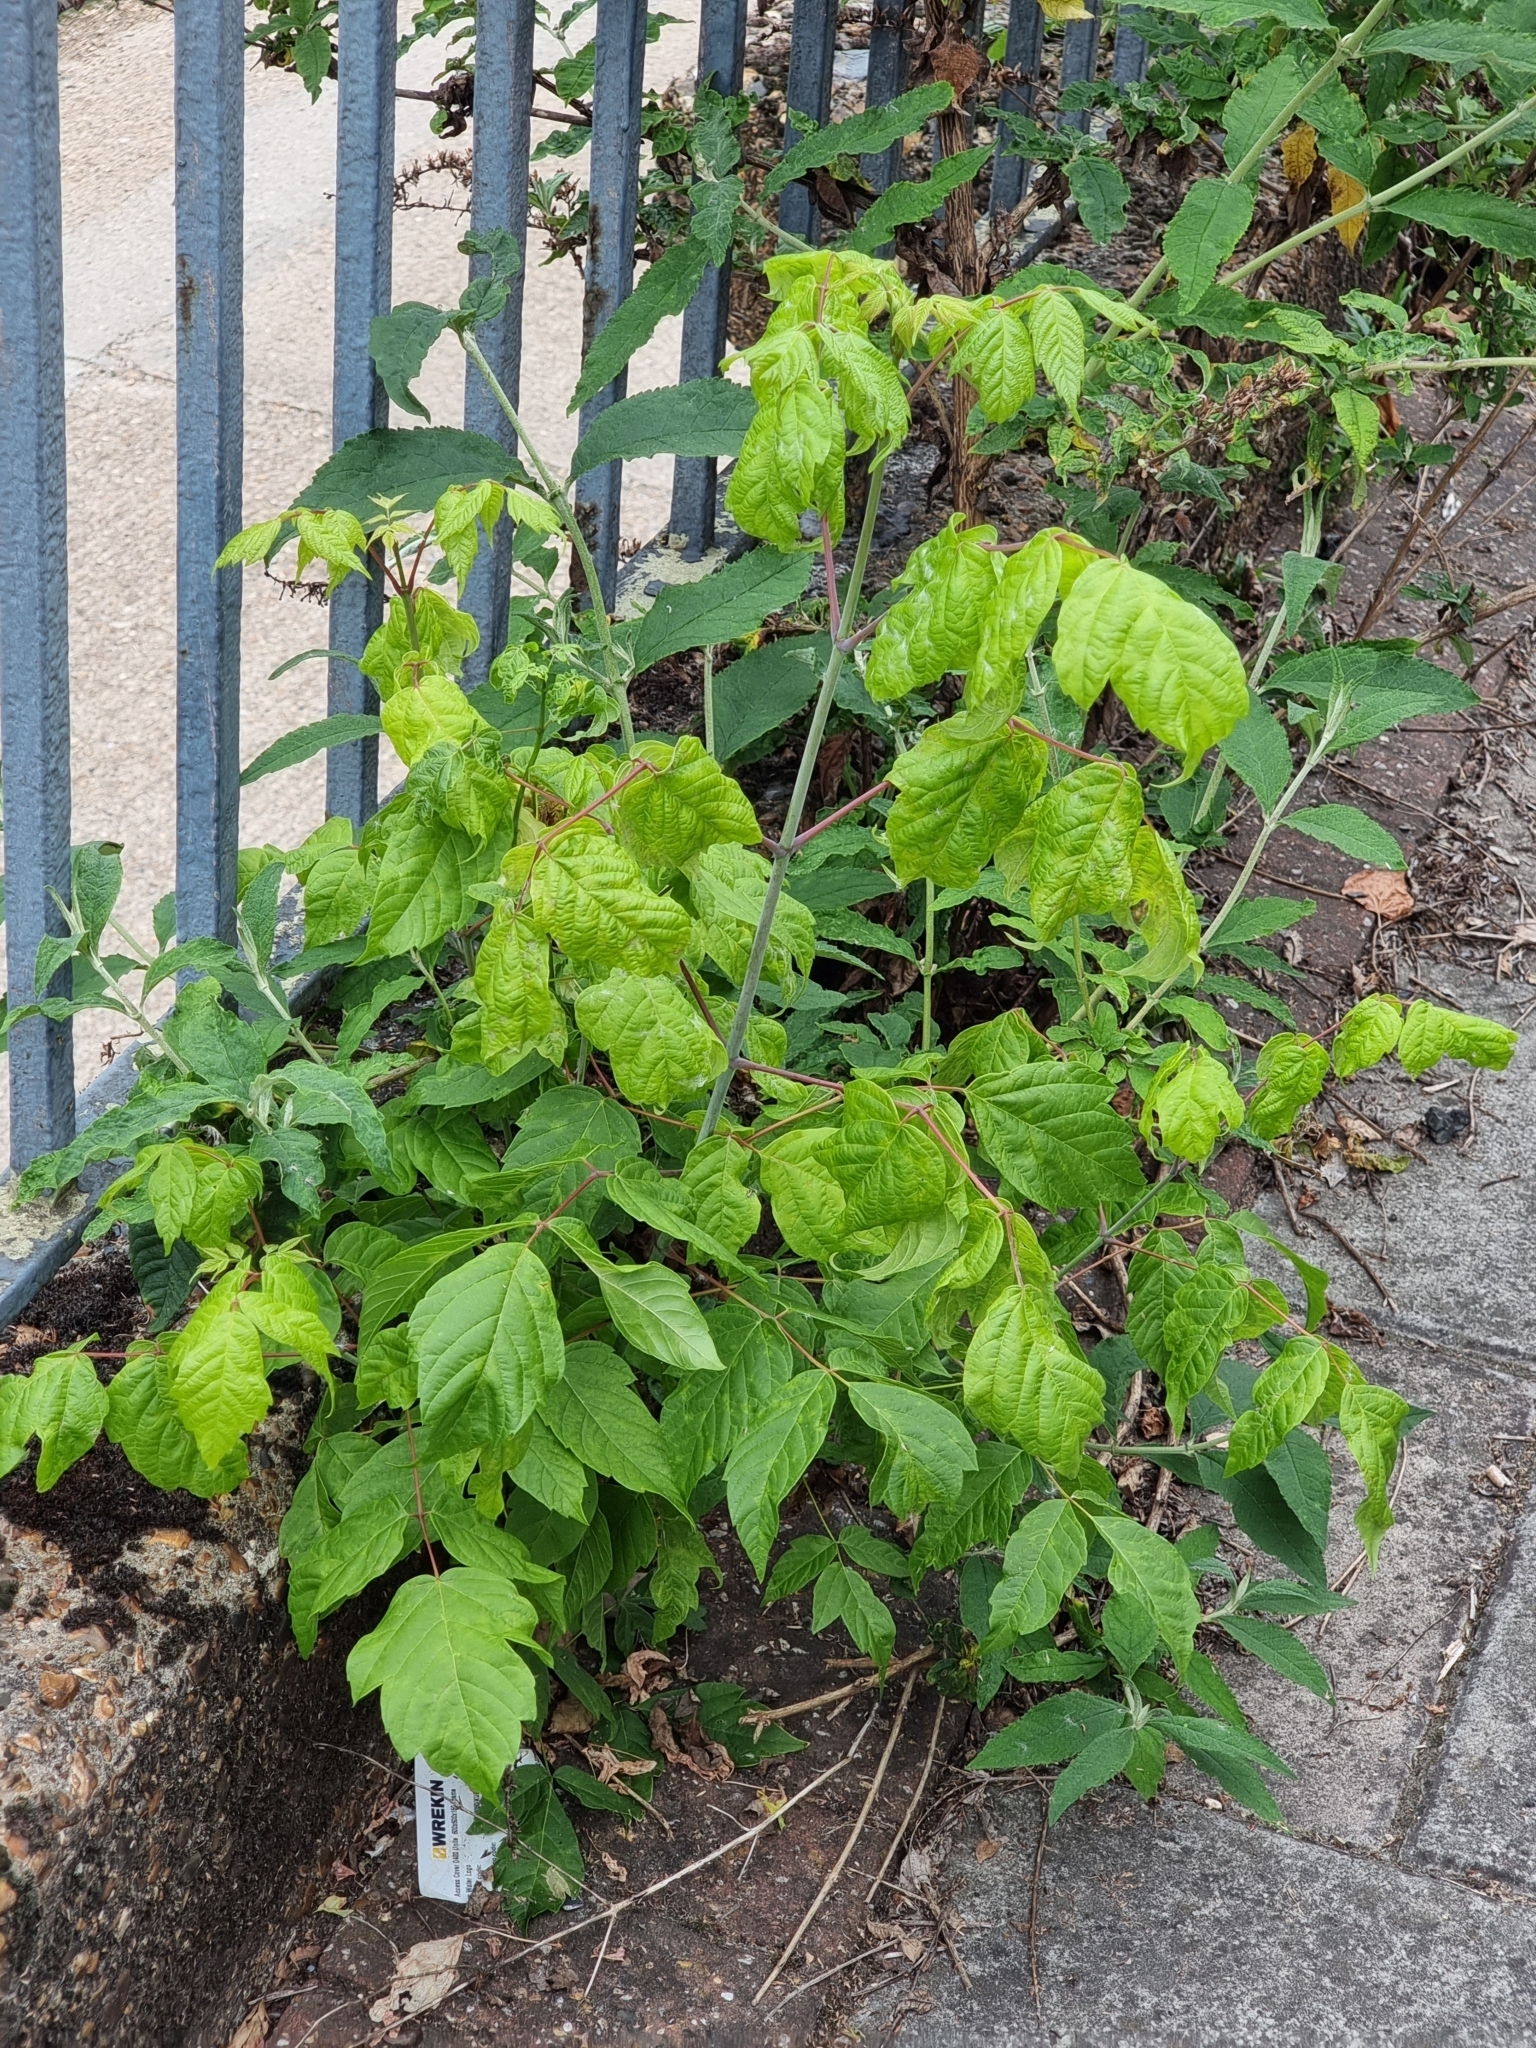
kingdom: Plantae
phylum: Tracheophyta
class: Magnoliopsida
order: Sapindales
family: Sapindaceae
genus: Acer
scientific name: Acer negundo
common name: Ashleaf maple
